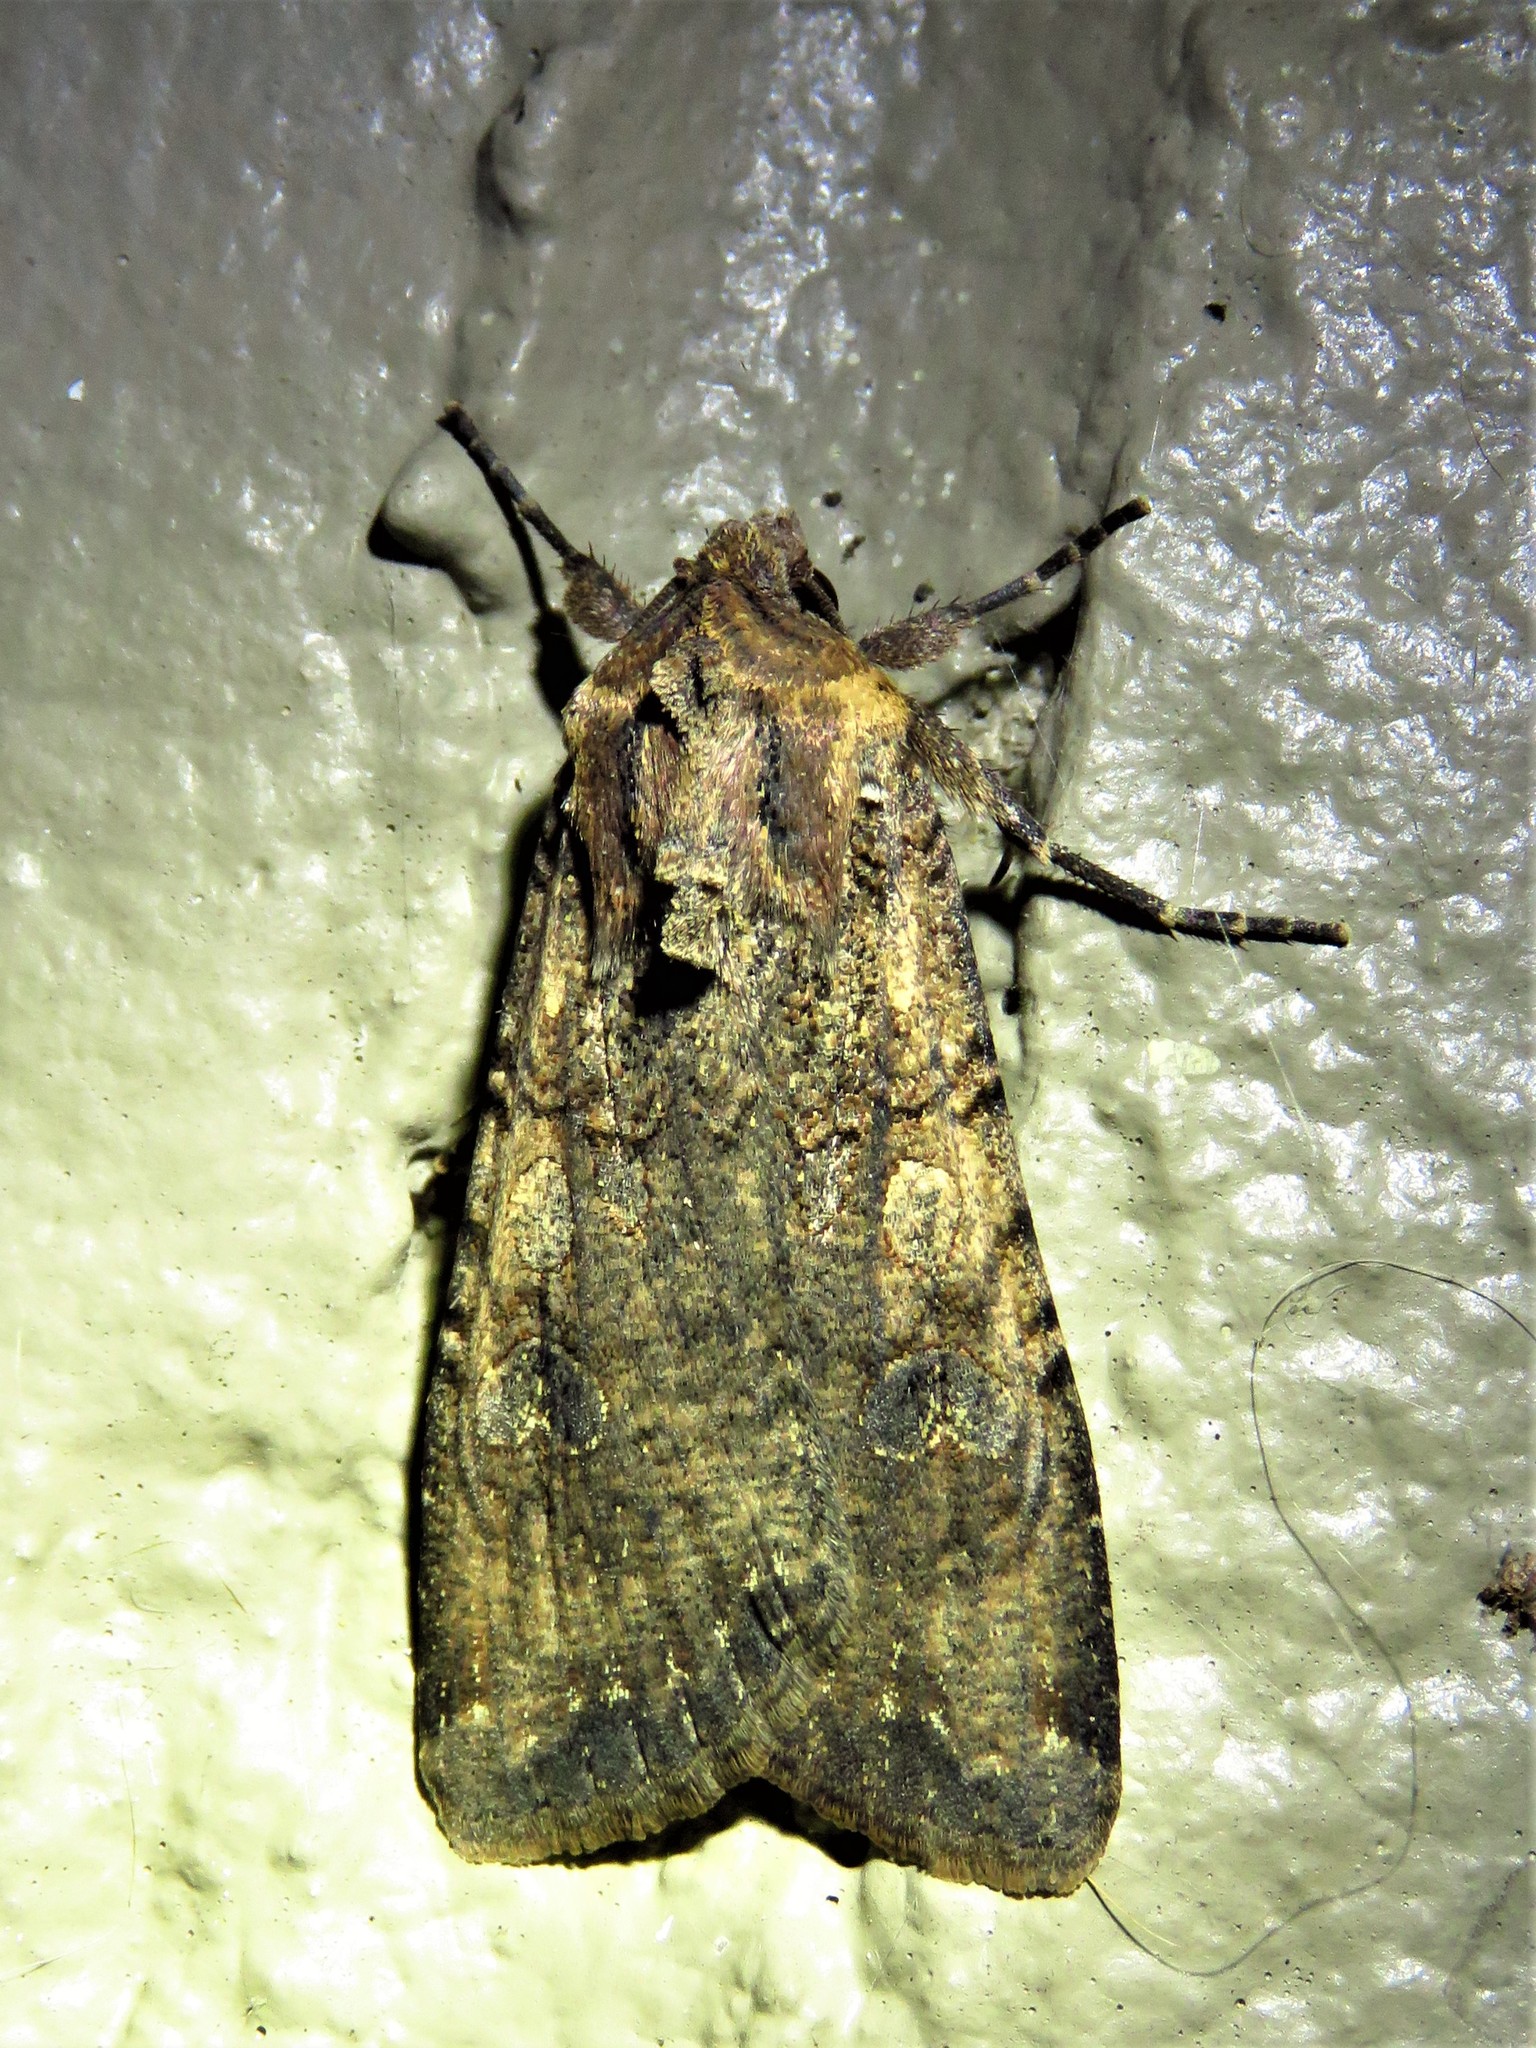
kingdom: Animalia
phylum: Arthropoda
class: Insecta
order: Lepidoptera
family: Noctuidae
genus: Peridroma
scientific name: Peridroma saucia
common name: Pearly underwing
